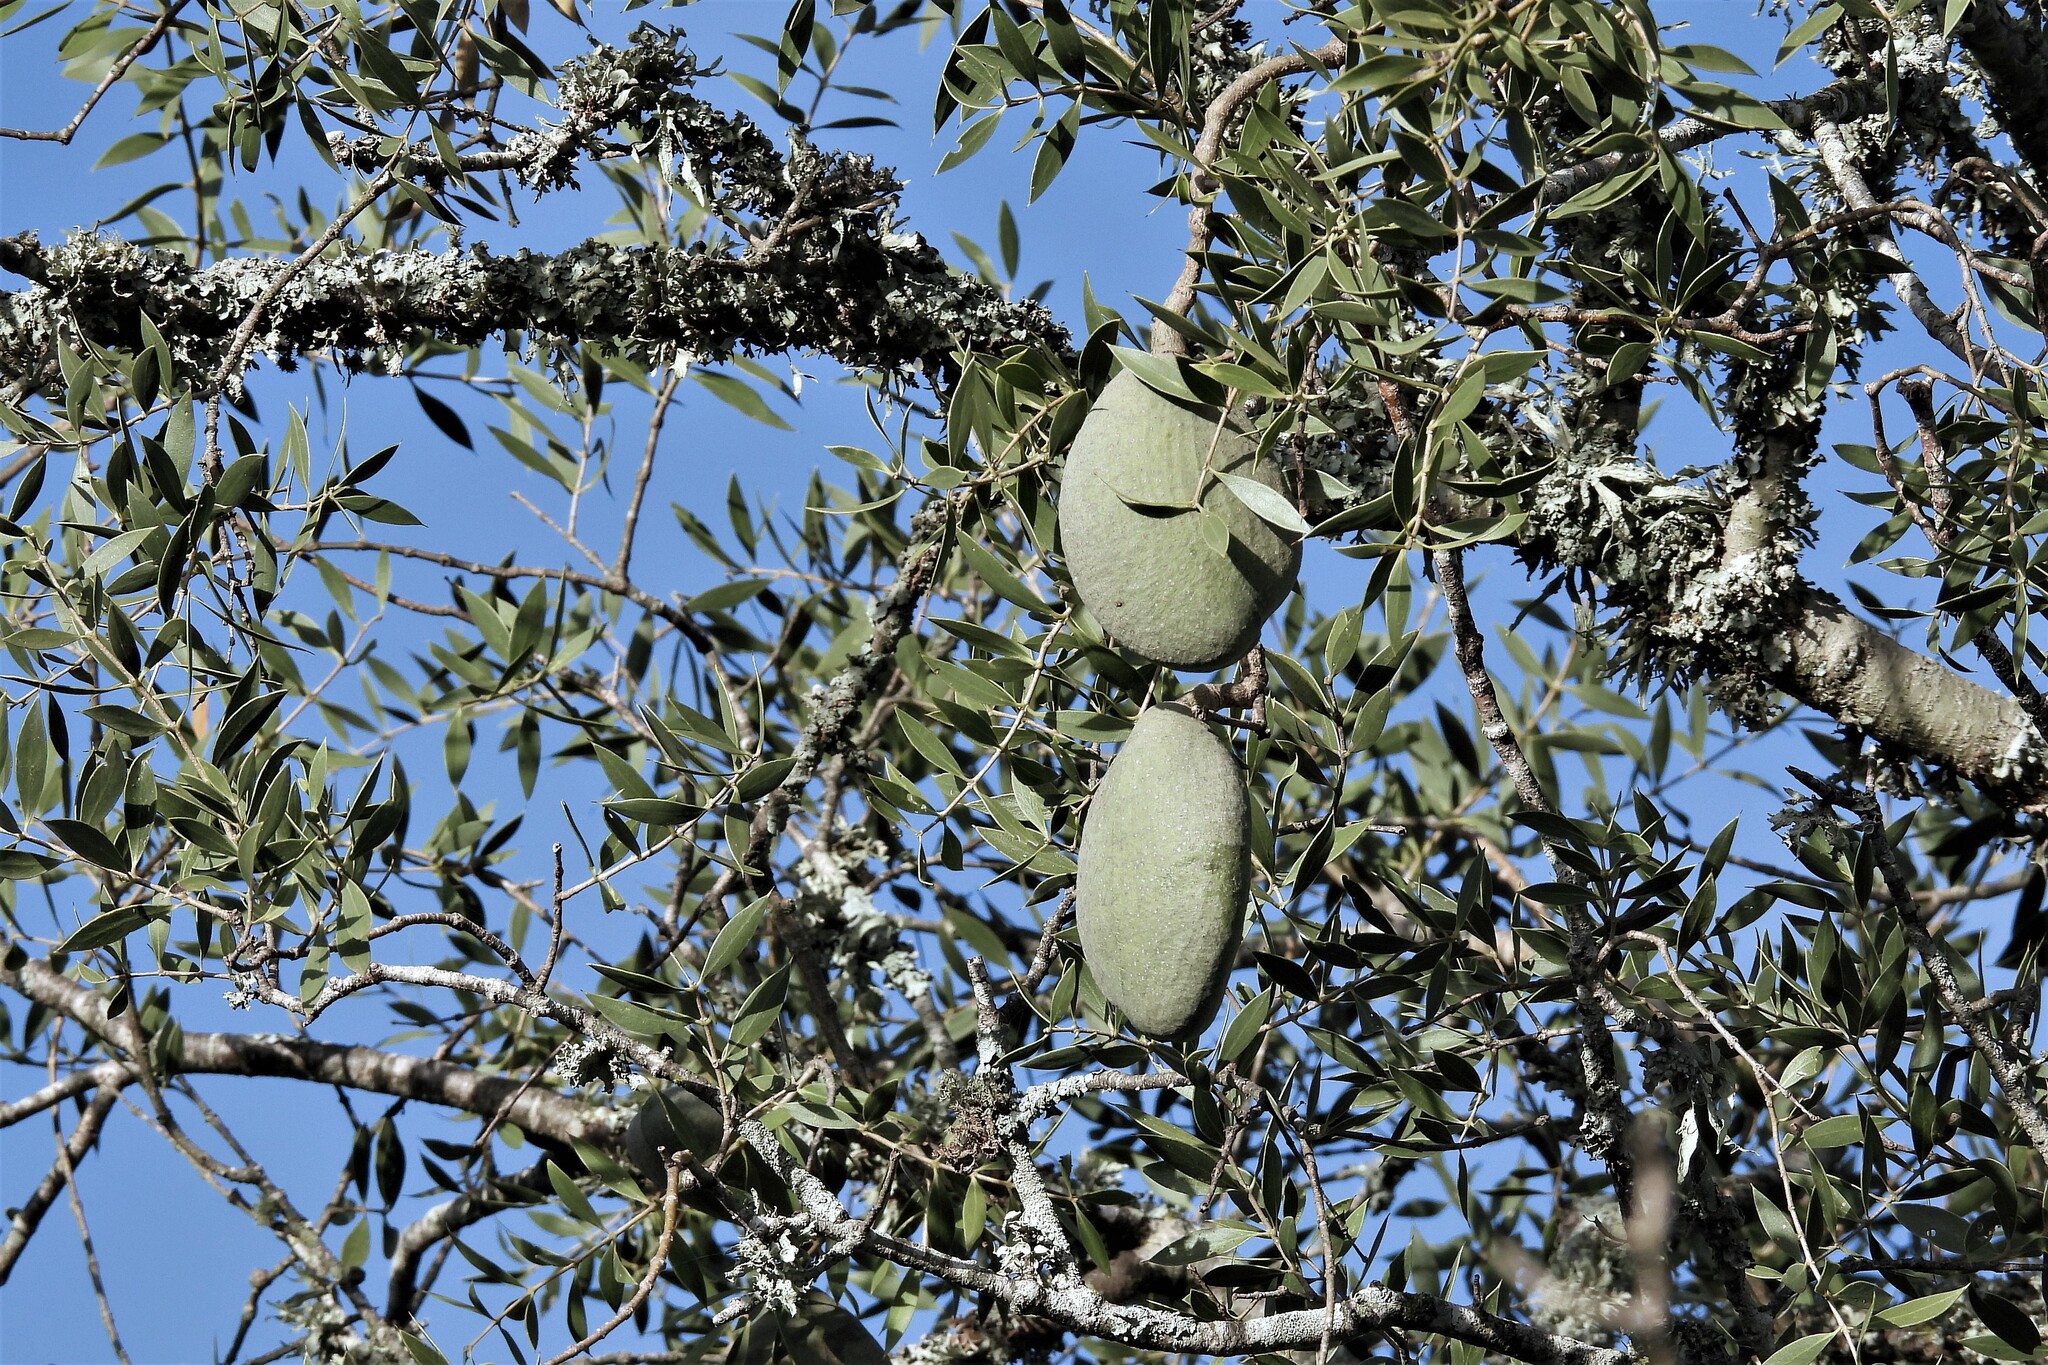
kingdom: Plantae
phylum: Tracheophyta
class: Magnoliopsida
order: Gentianales
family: Apocynaceae
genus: Aspidosperma
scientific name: Aspidosperma quebracho-blanco
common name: White quebracho
